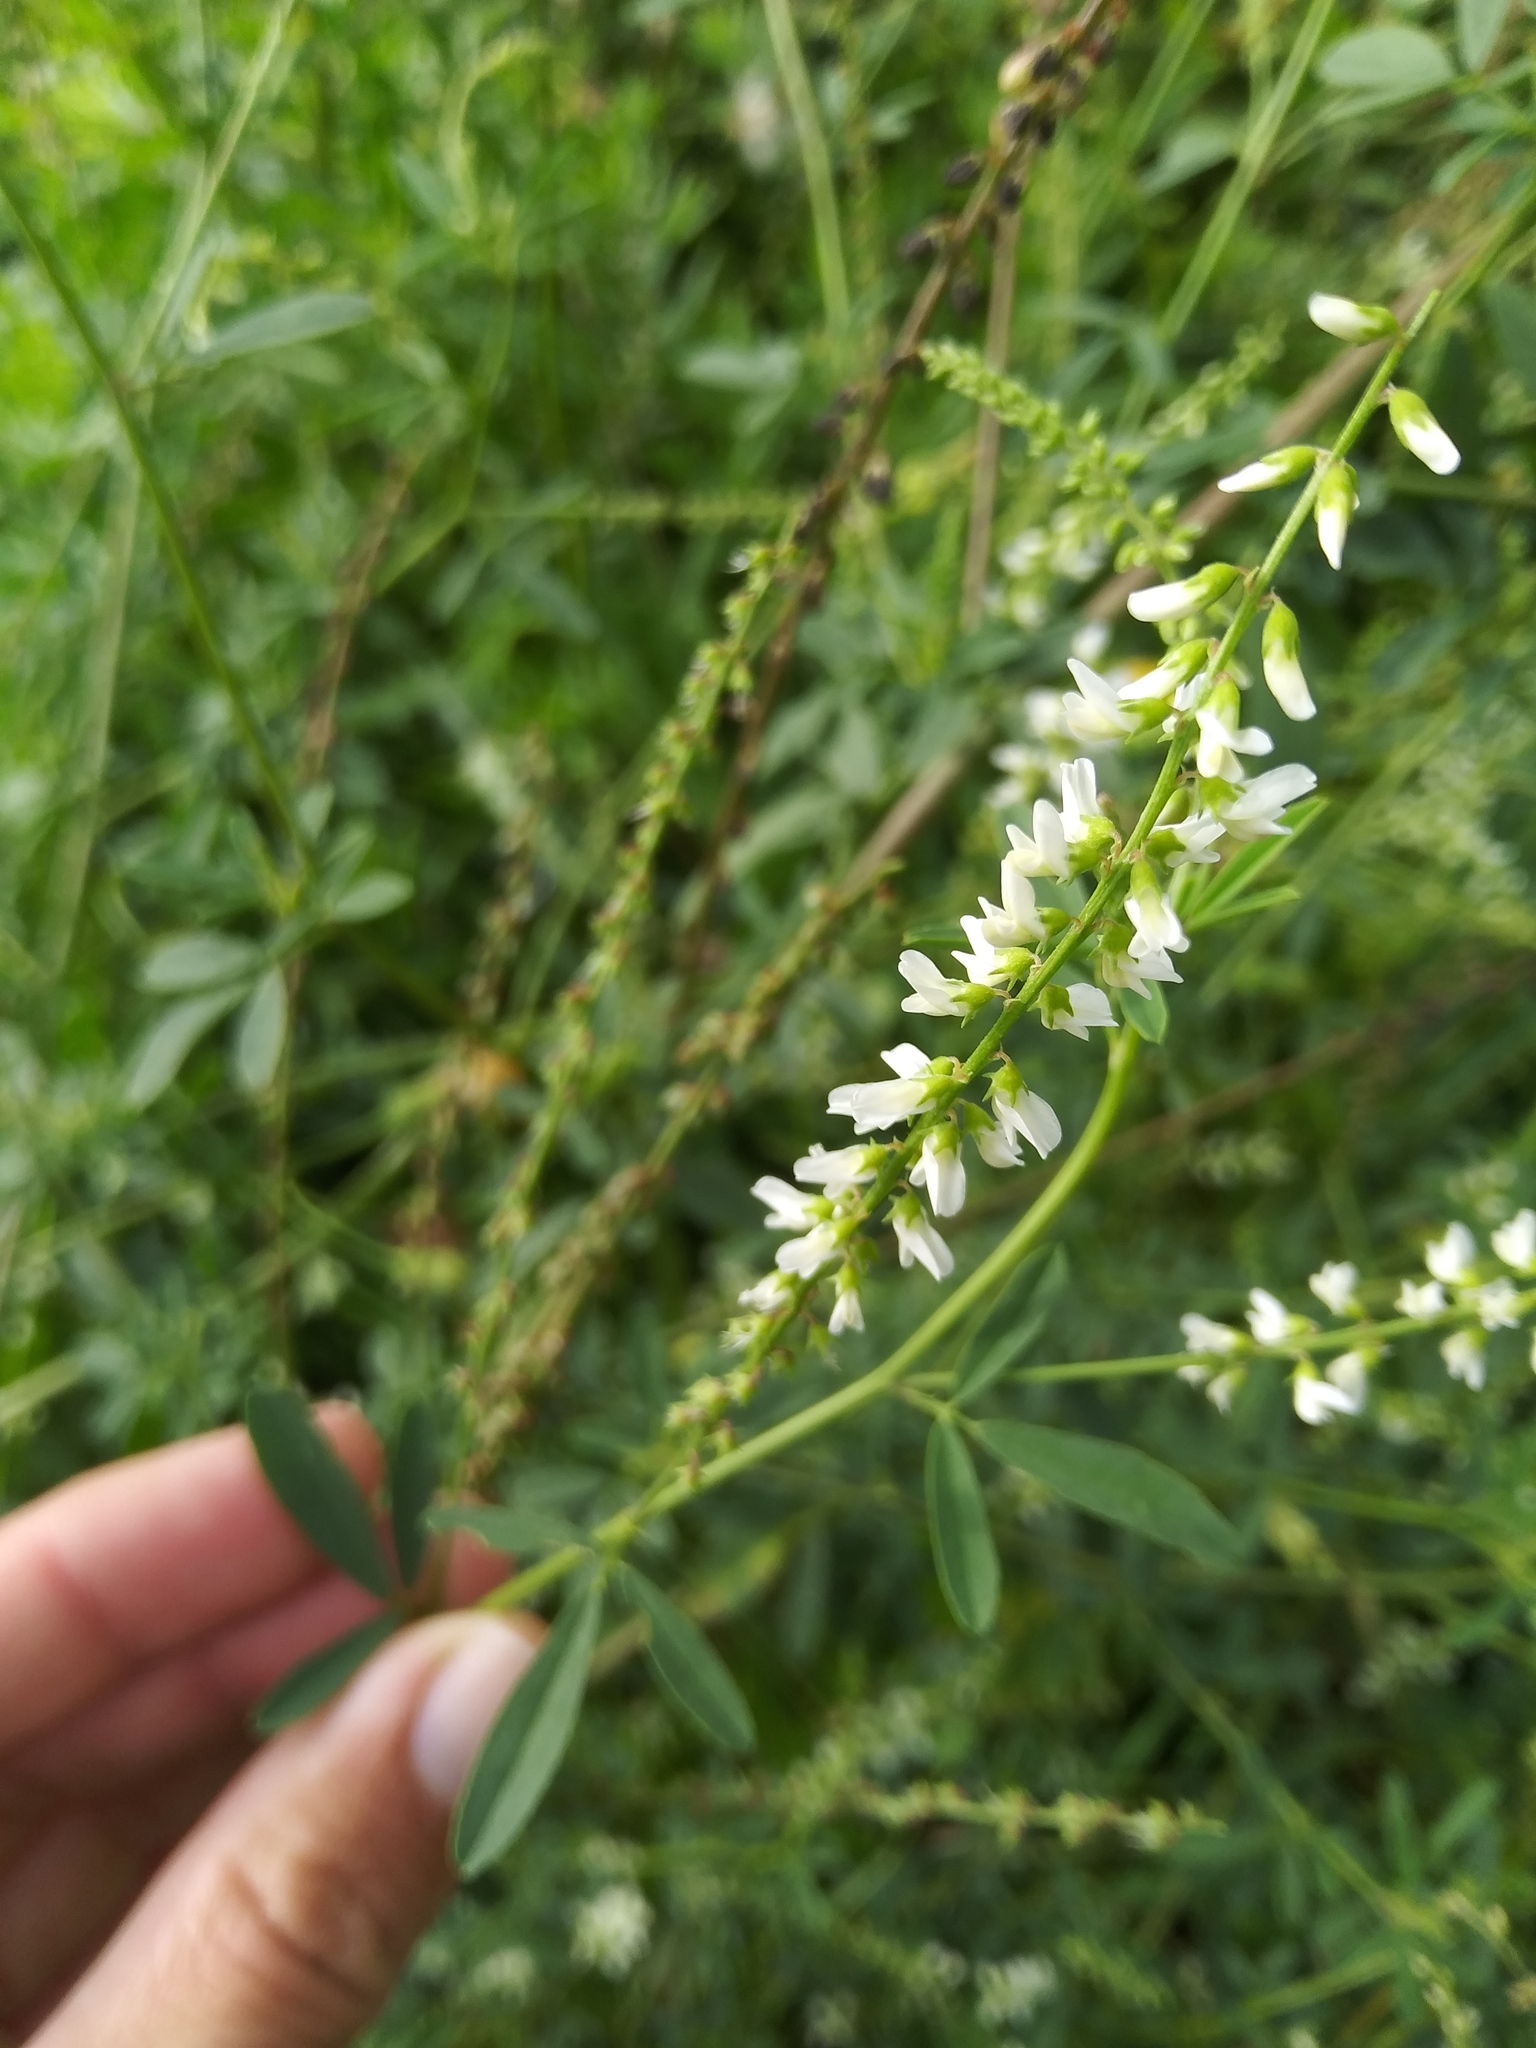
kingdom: Plantae
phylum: Tracheophyta
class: Magnoliopsida
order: Fabales
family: Fabaceae
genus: Melilotus
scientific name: Melilotus albus
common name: White melilot
